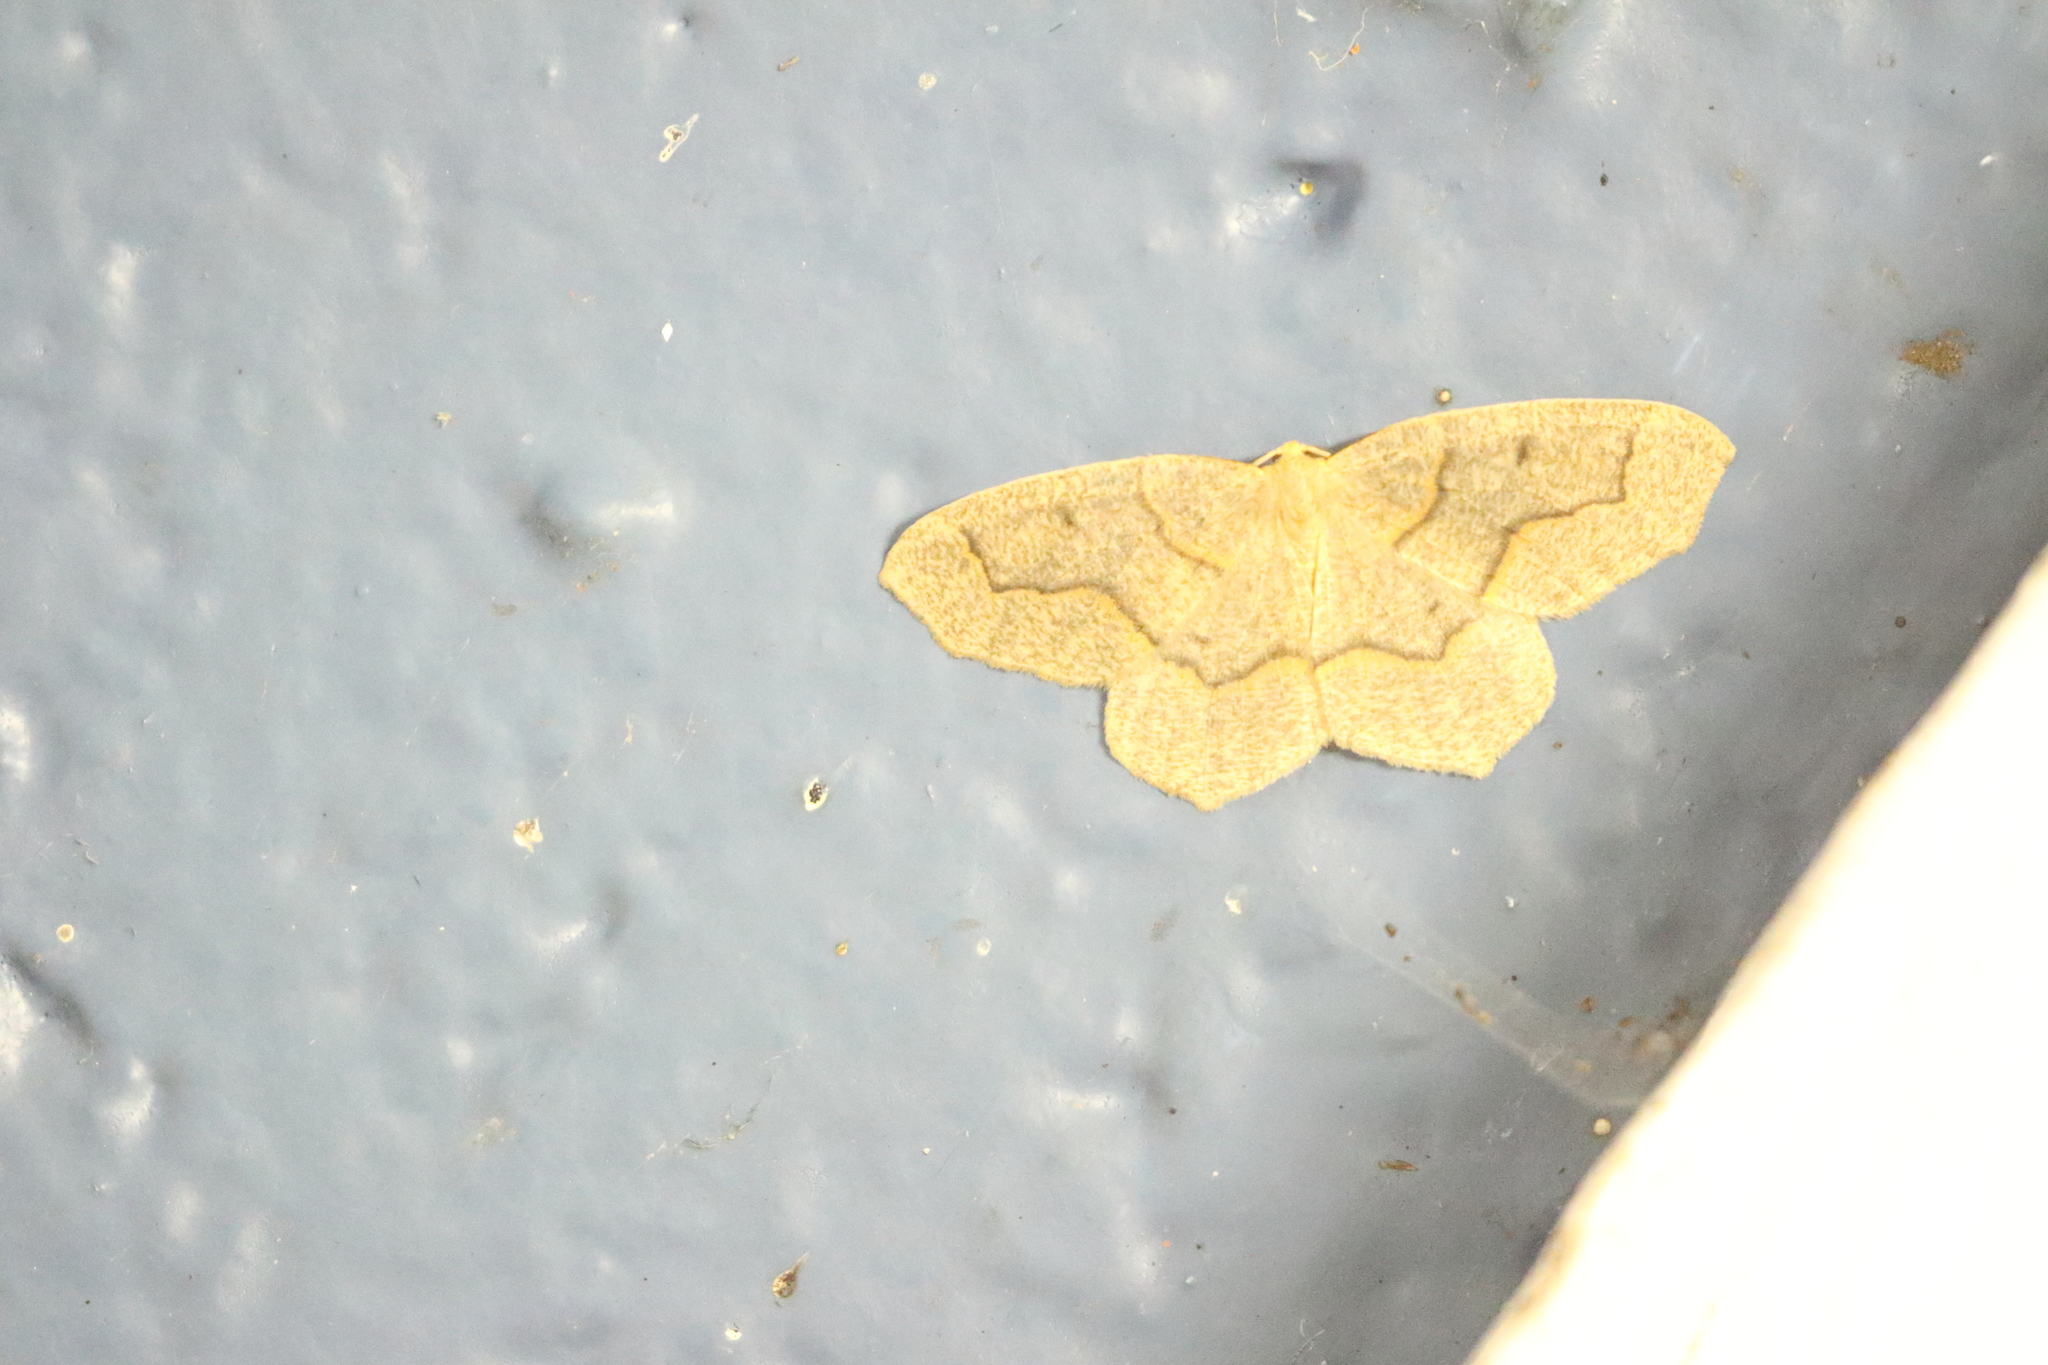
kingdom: Animalia
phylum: Arthropoda
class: Insecta
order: Lepidoptera
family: Geometridae
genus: Lambdina
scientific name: Lambdina fiscellaria
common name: Hemlock looper
